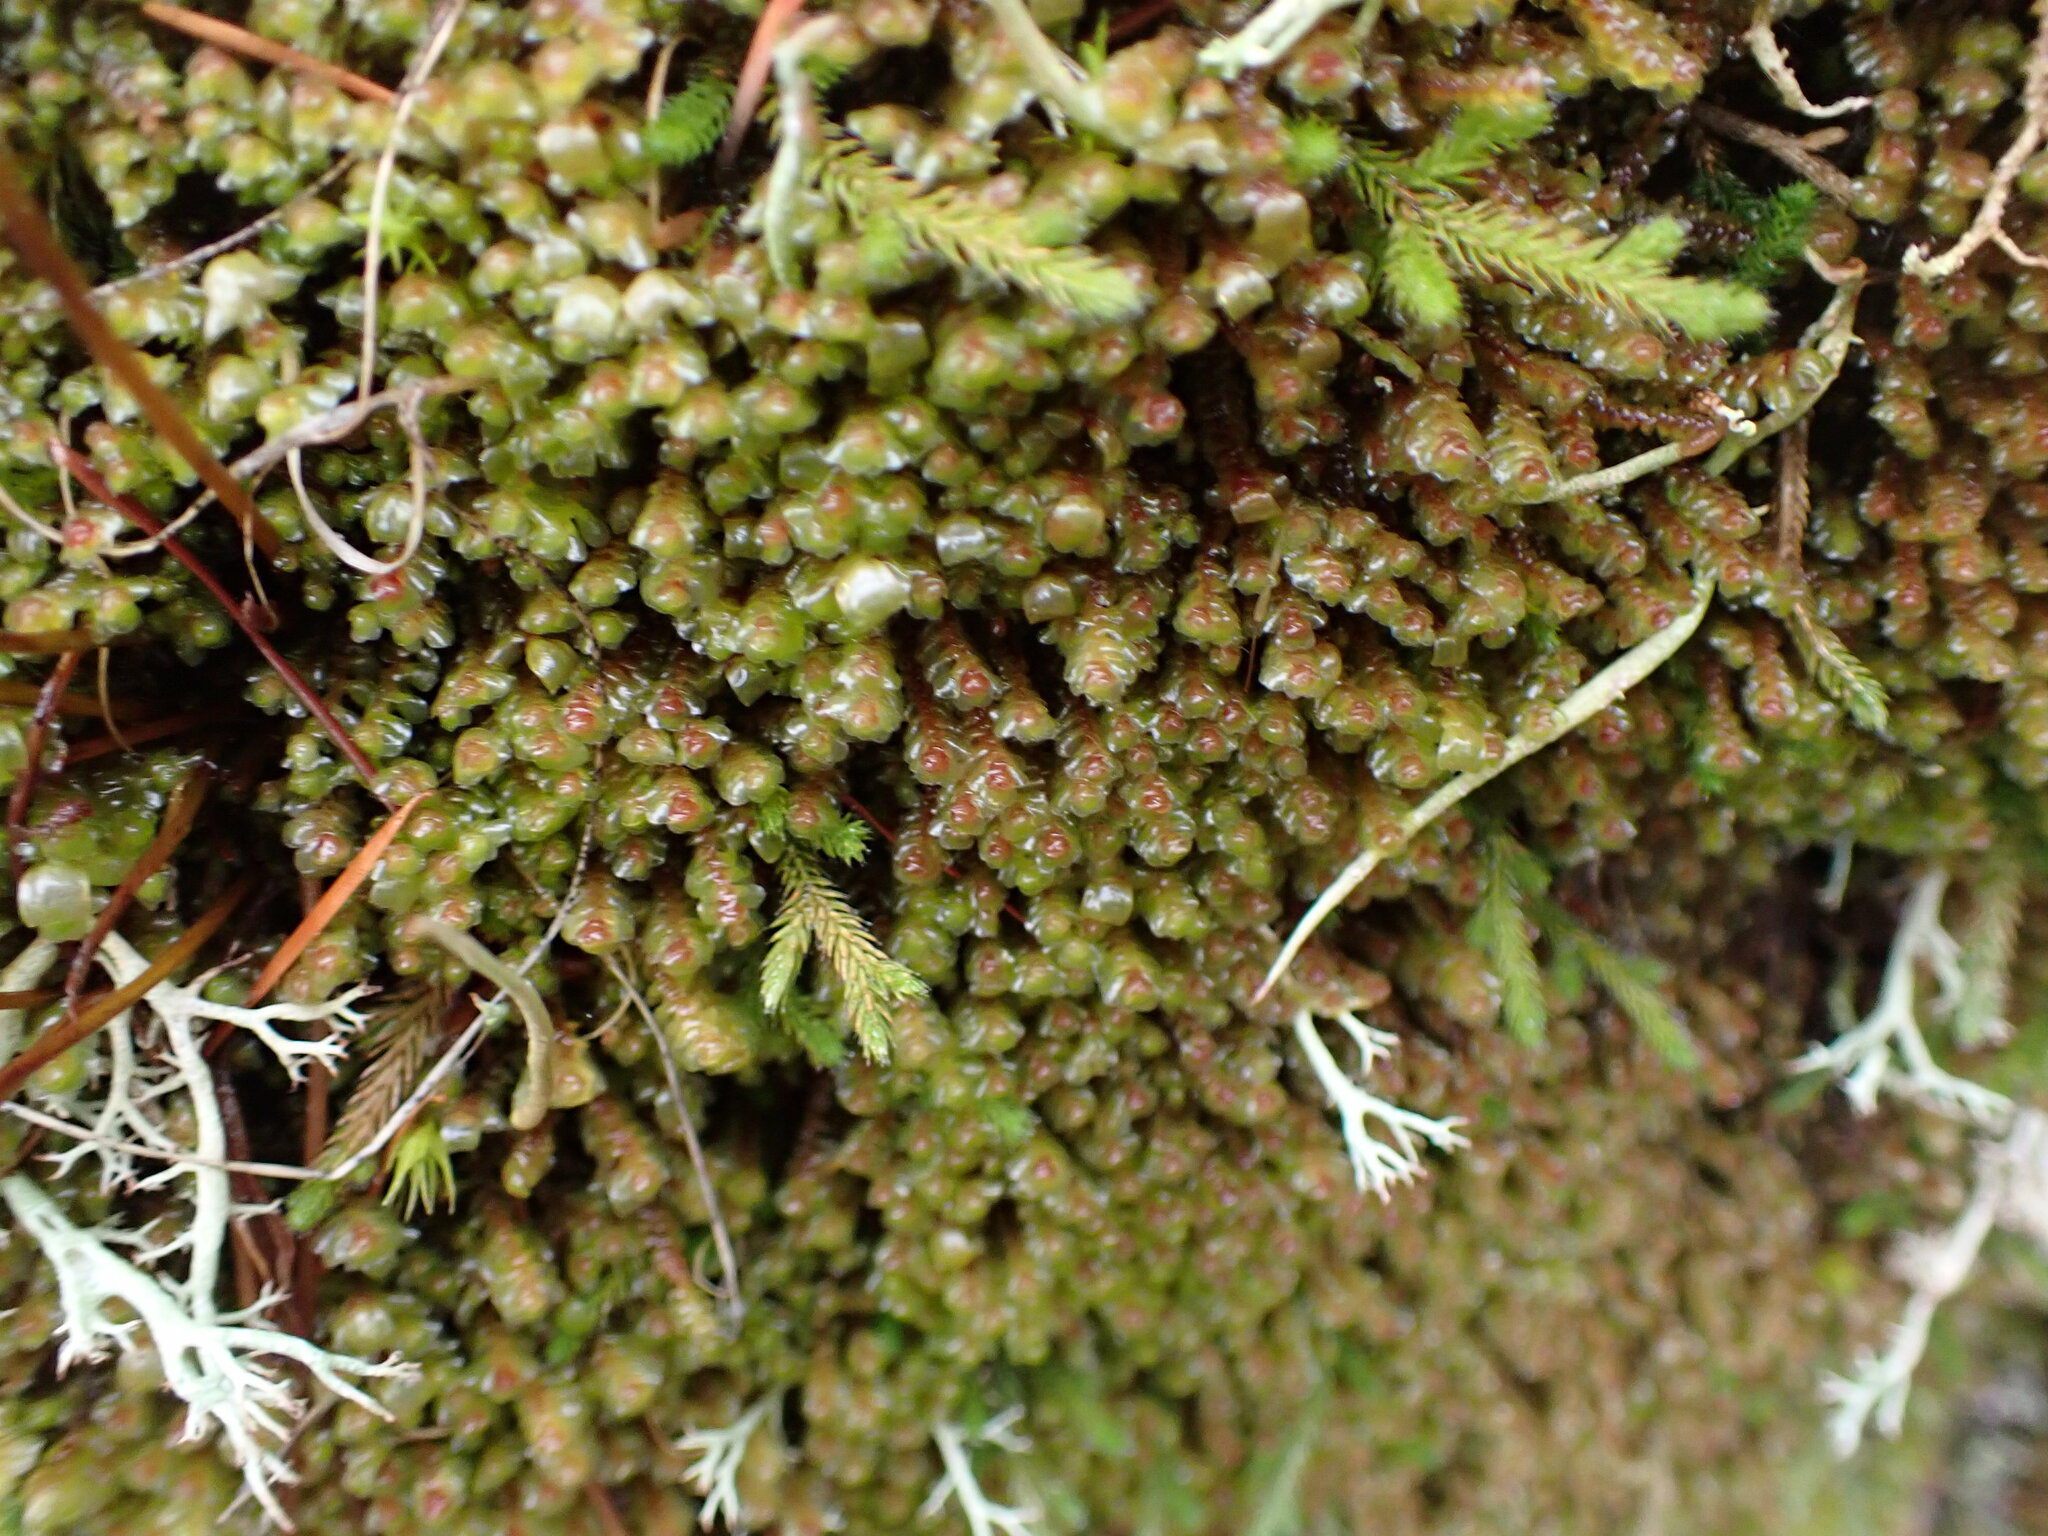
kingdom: Plantae
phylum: Marchantiophyta
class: Jungermanniopsida
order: Jungermanniales
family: Scapaniaceae
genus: Scapania
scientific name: Scapania americana
